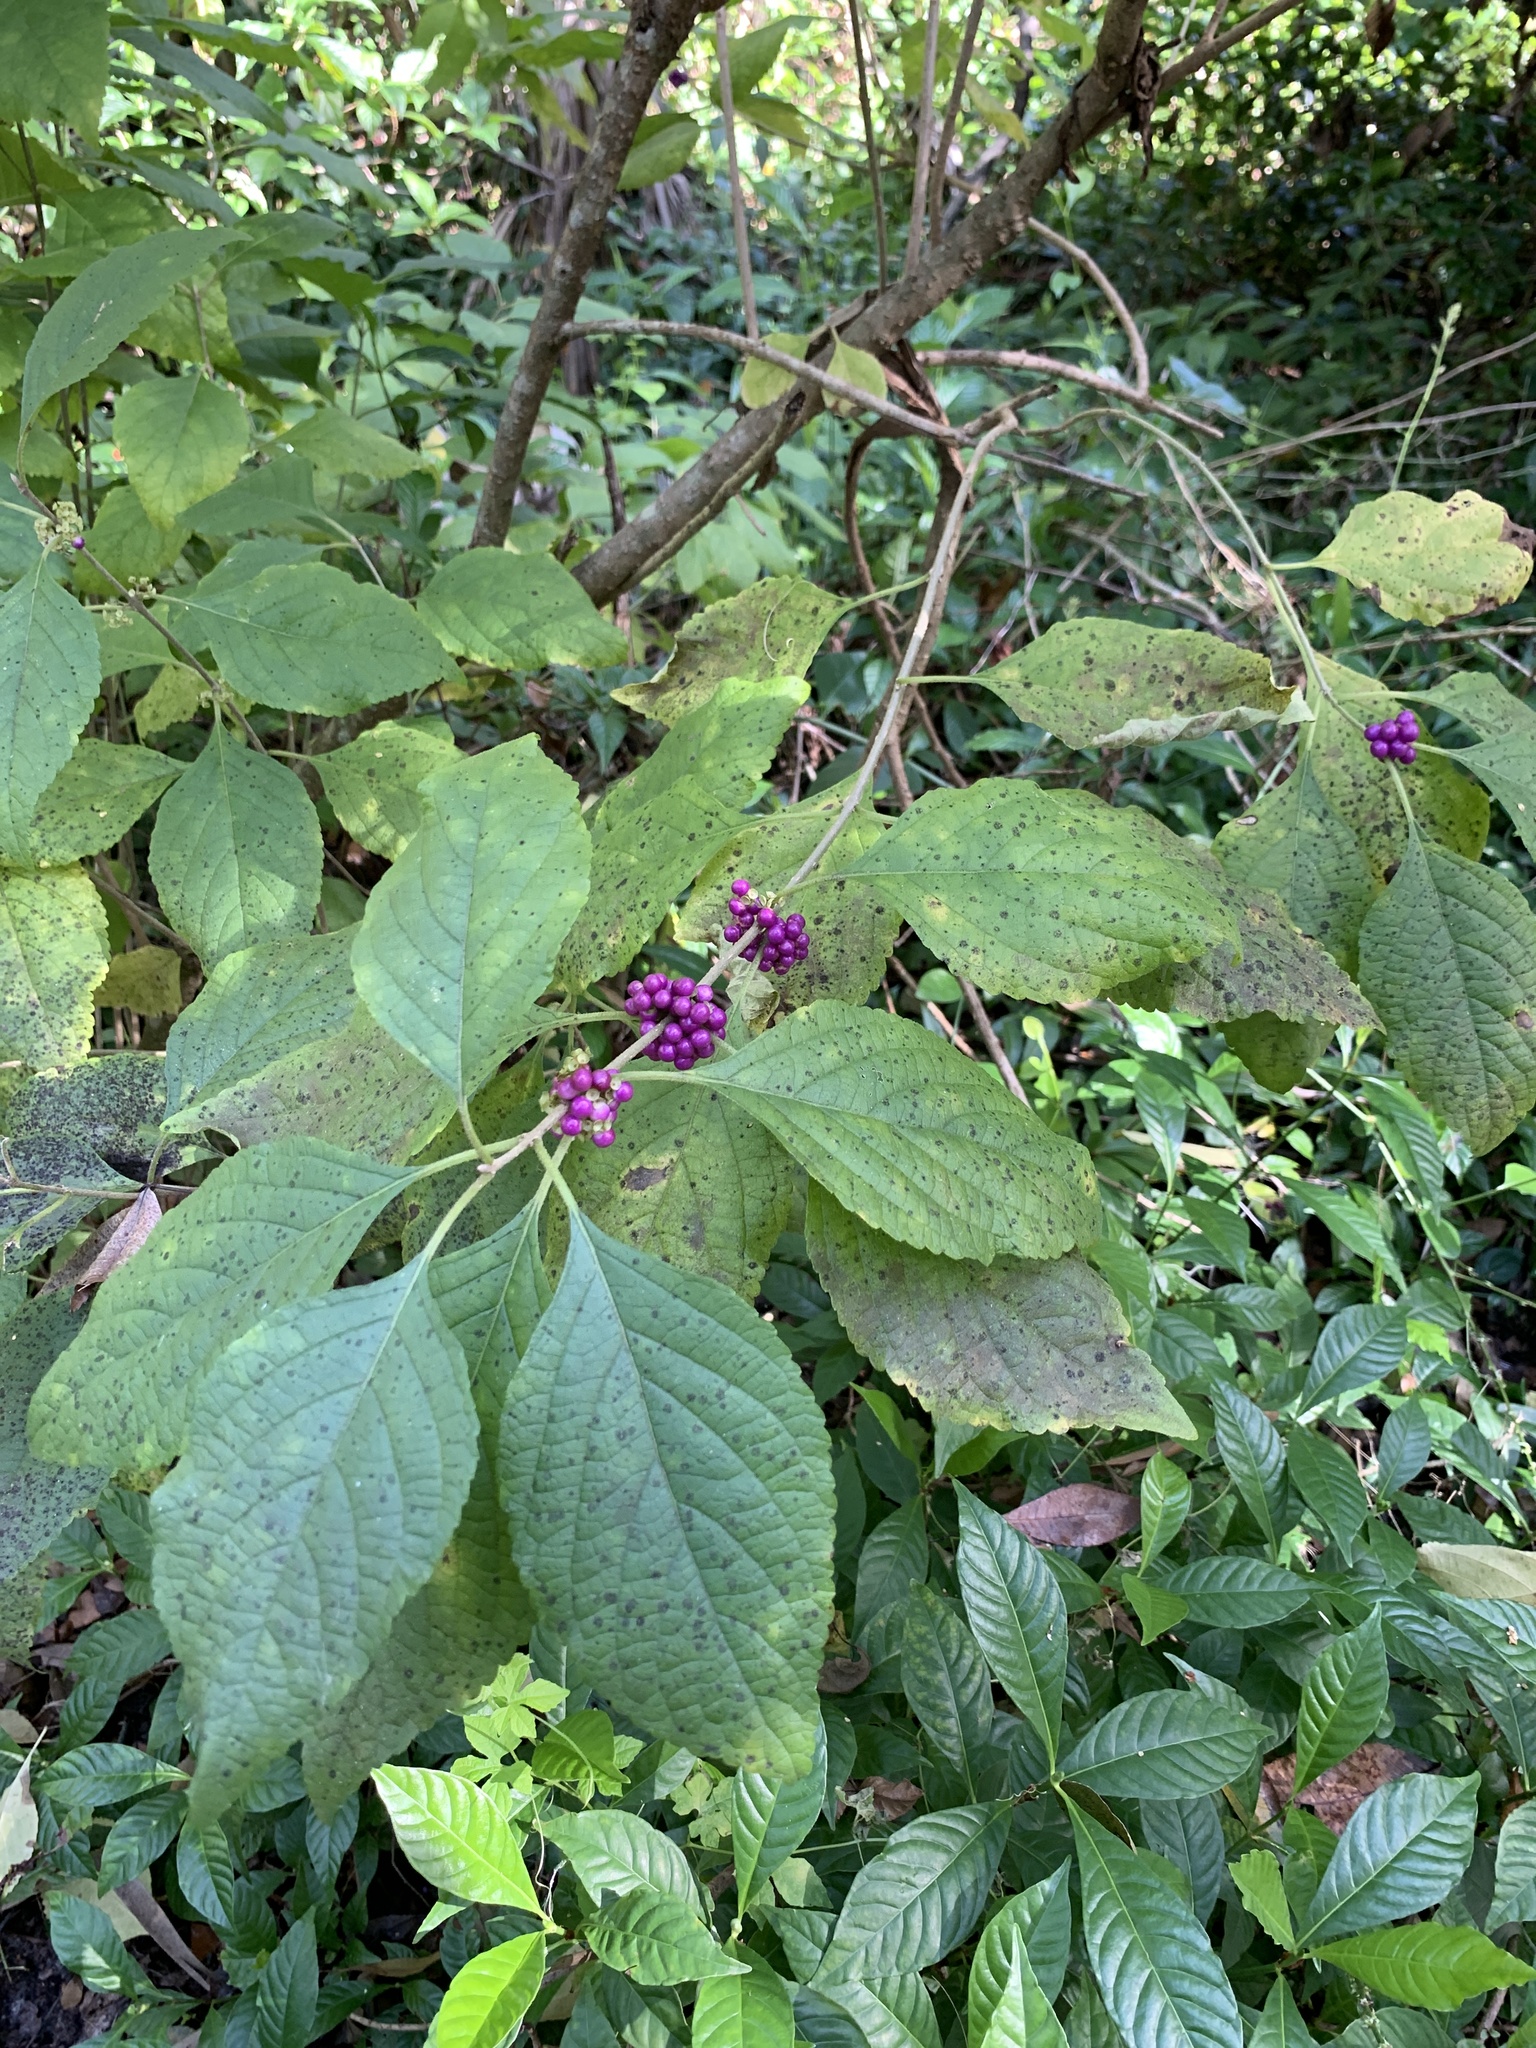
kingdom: Plantae
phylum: Tracheophyta
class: Magnoliopsida
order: Lamiales
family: Lamiaceae
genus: Callicarpa
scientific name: Callicarpa americana
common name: American beautyberry
